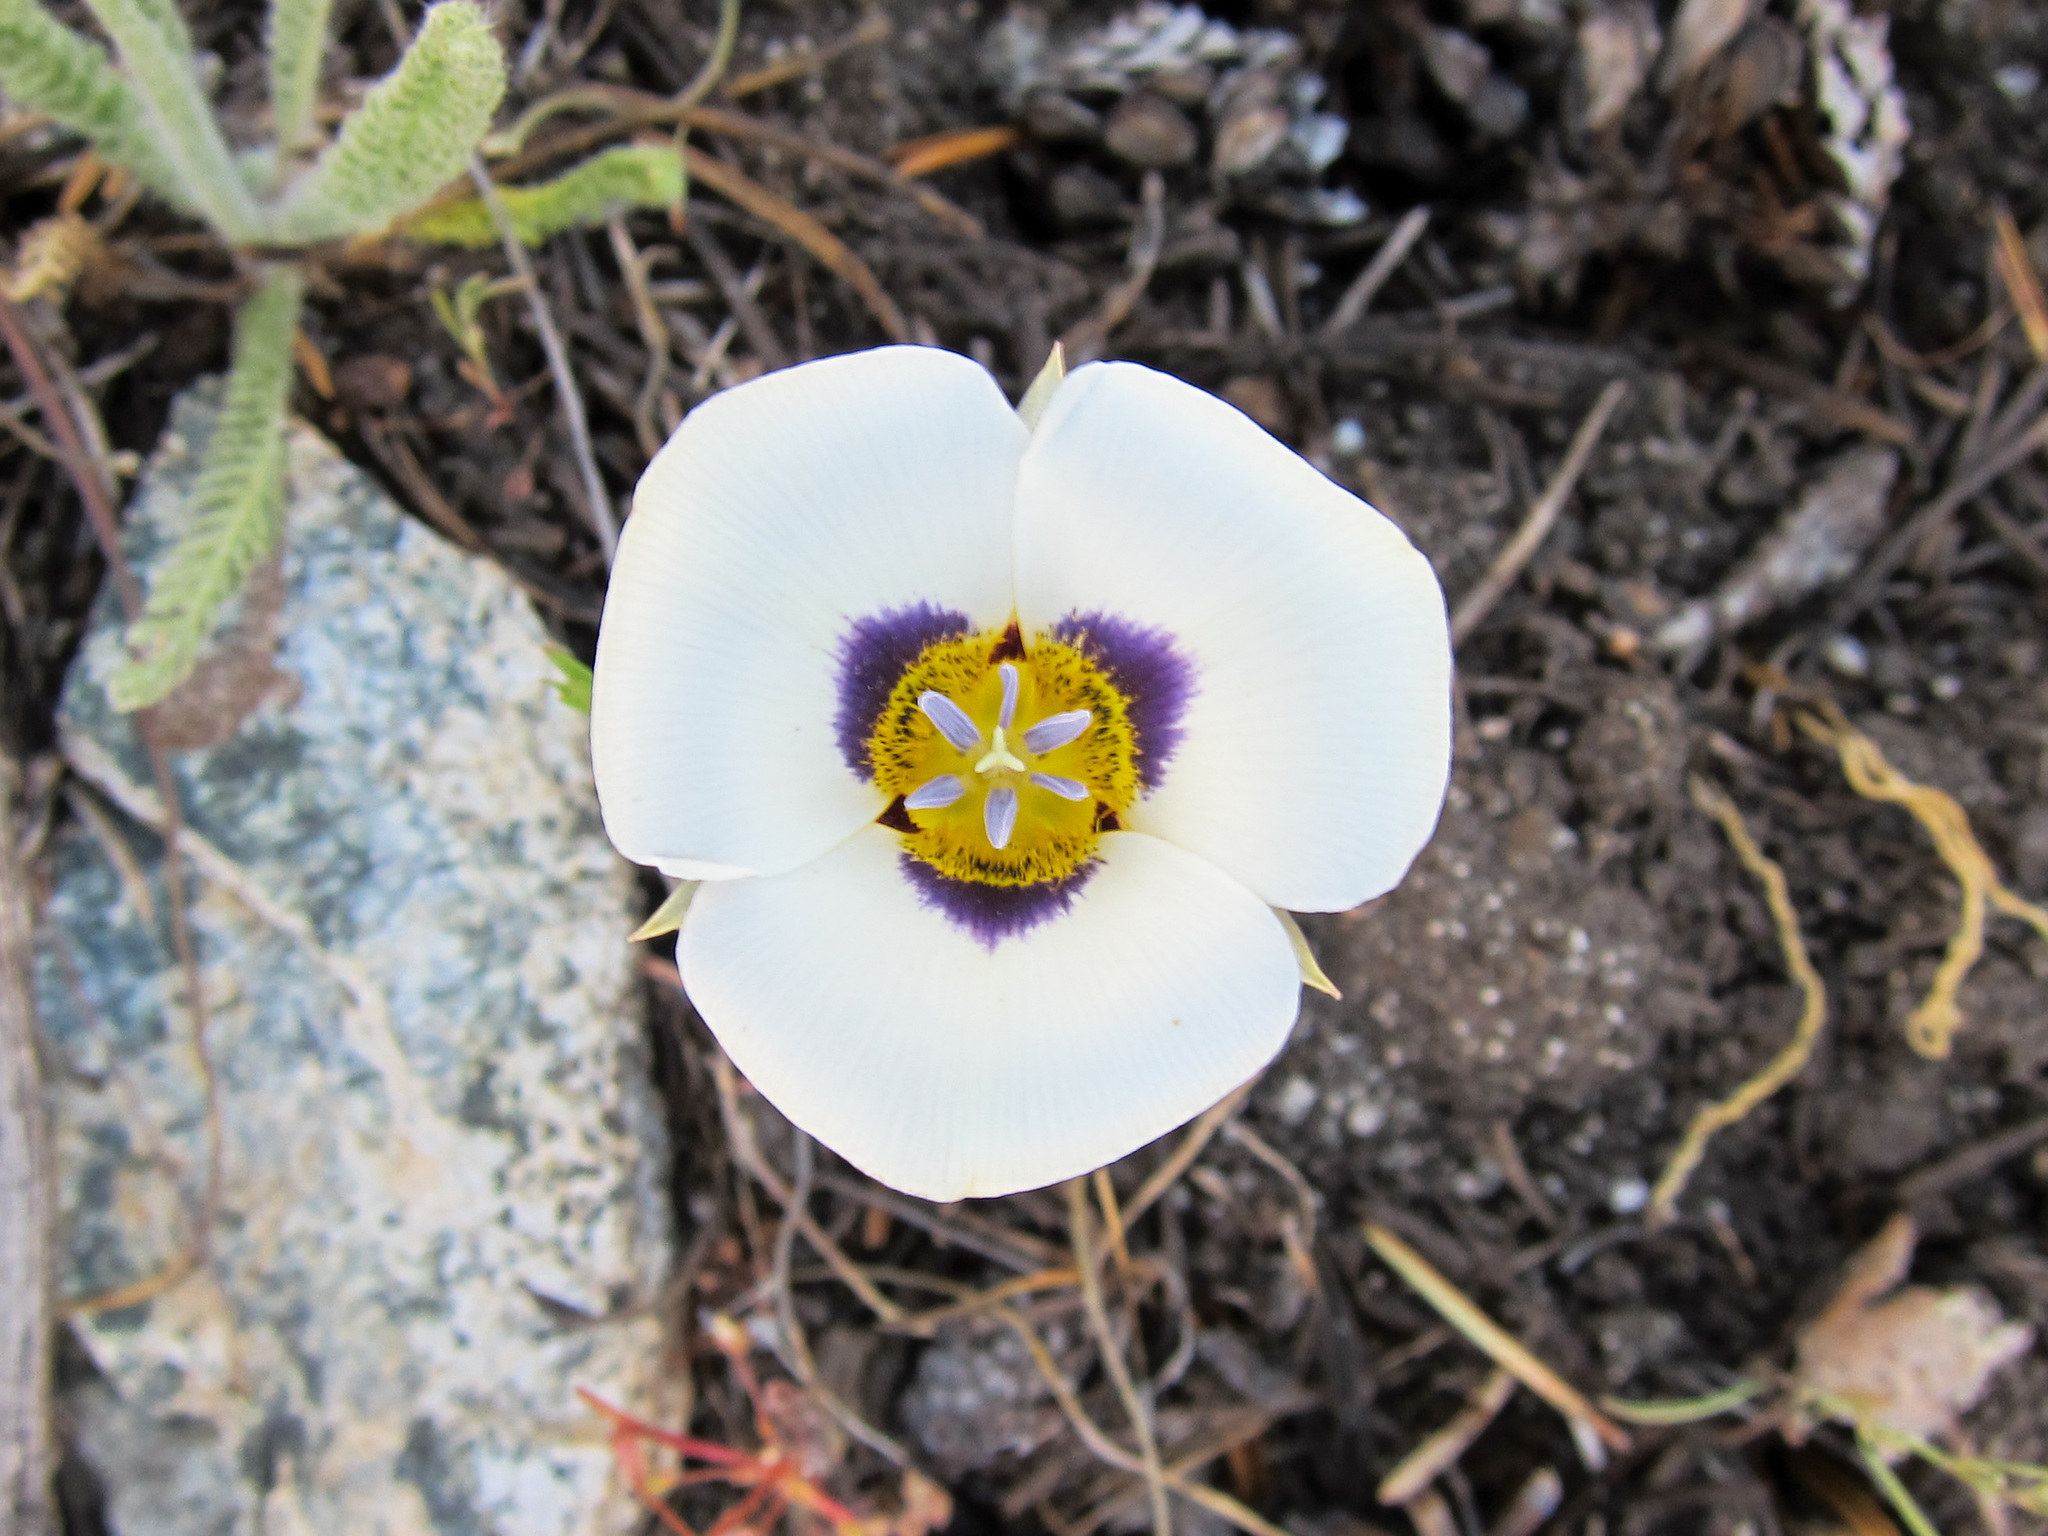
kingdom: Plantae
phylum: Tracheophyta
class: Liliopsida
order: Liliales
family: Liliaceae
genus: Calochortus
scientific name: Calochortus leichtlinii
